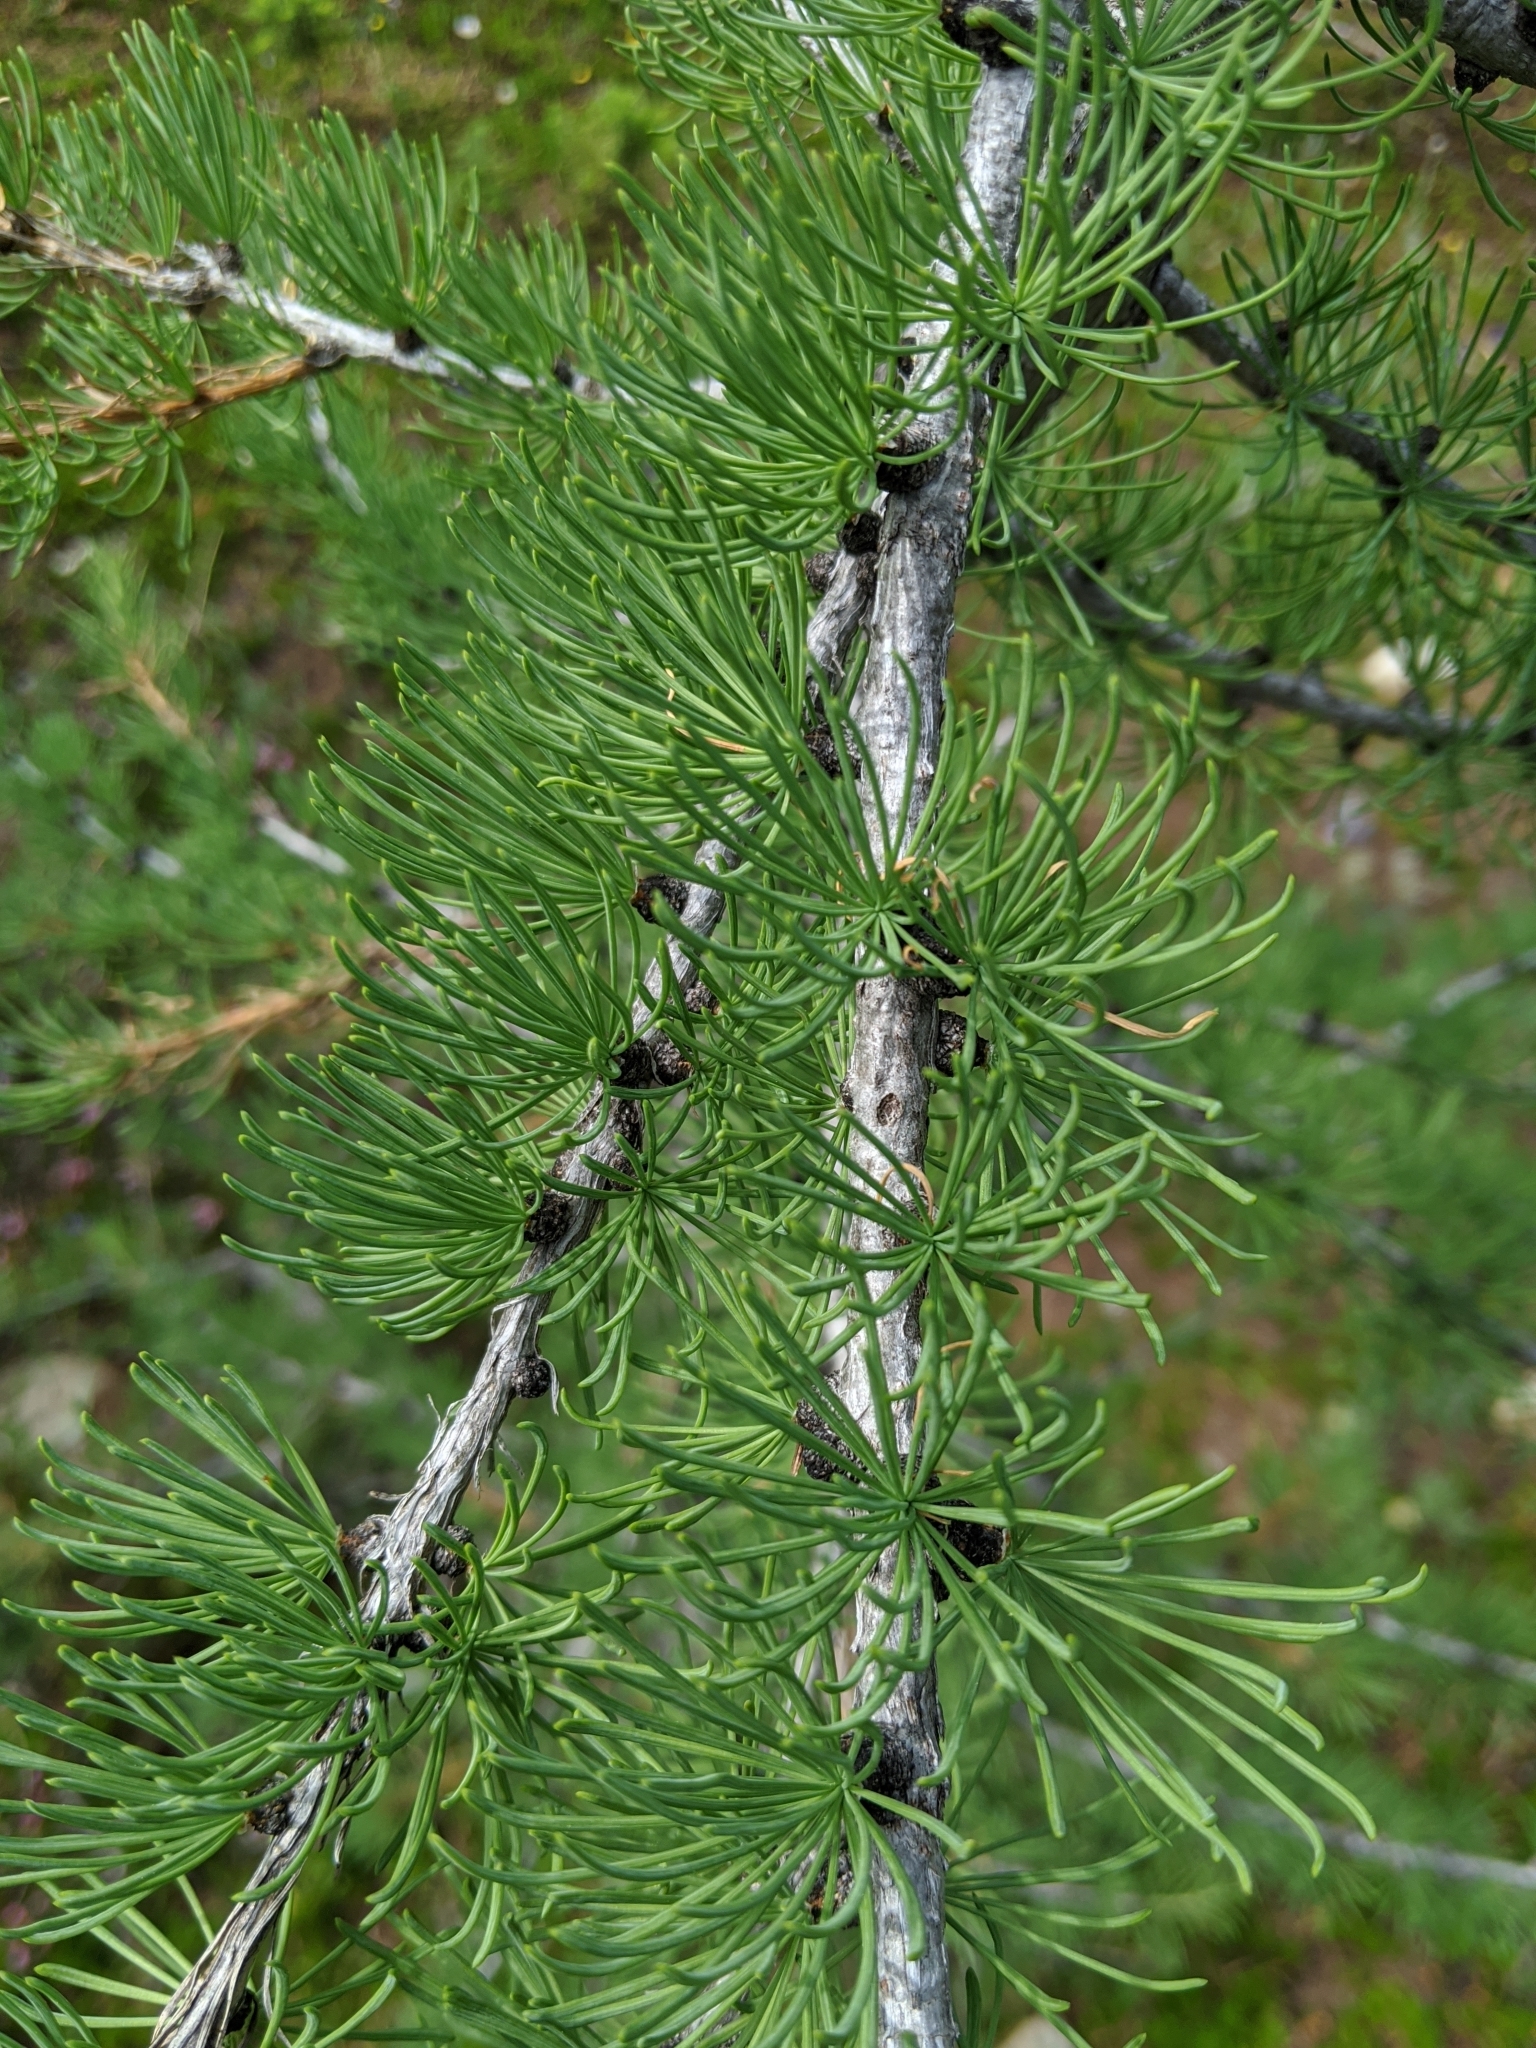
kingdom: Plantae
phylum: Tracheophyta
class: Pinopsida
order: Pinales
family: Pinaceae
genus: Larix
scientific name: Larix lyallii
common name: Alpine larch
